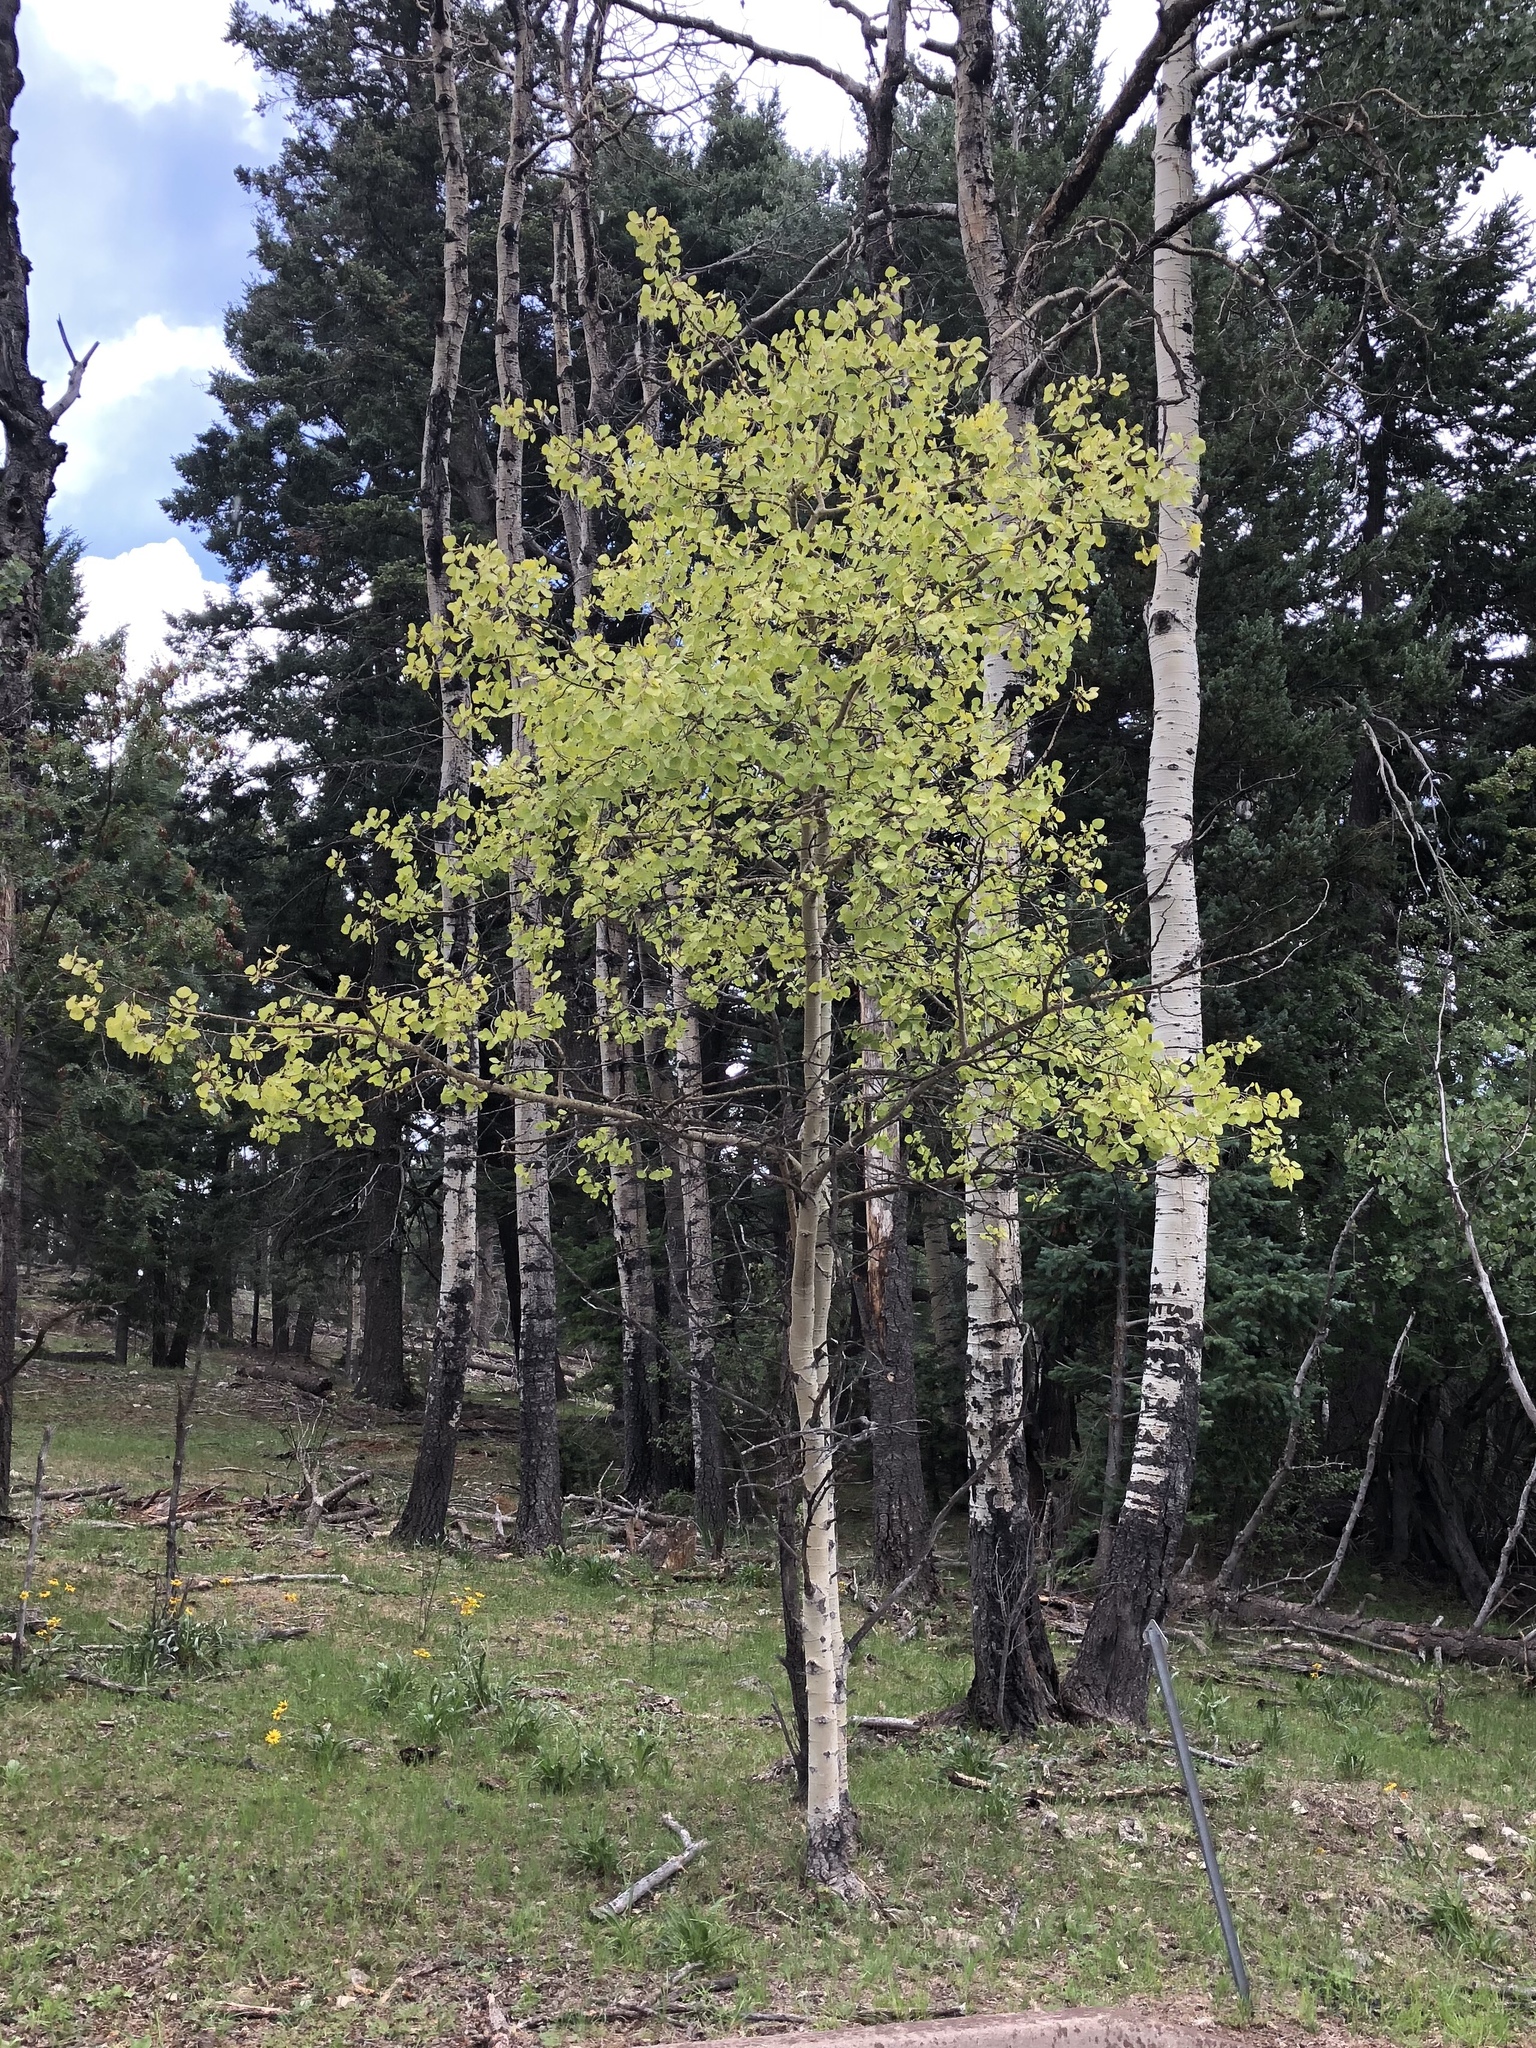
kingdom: Plantae
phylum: Tracheophyta
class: Magnoliopsida
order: Malpighiales
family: Salicaceae
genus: Populus
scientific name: Populus tremuloides
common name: Quaking aspen
